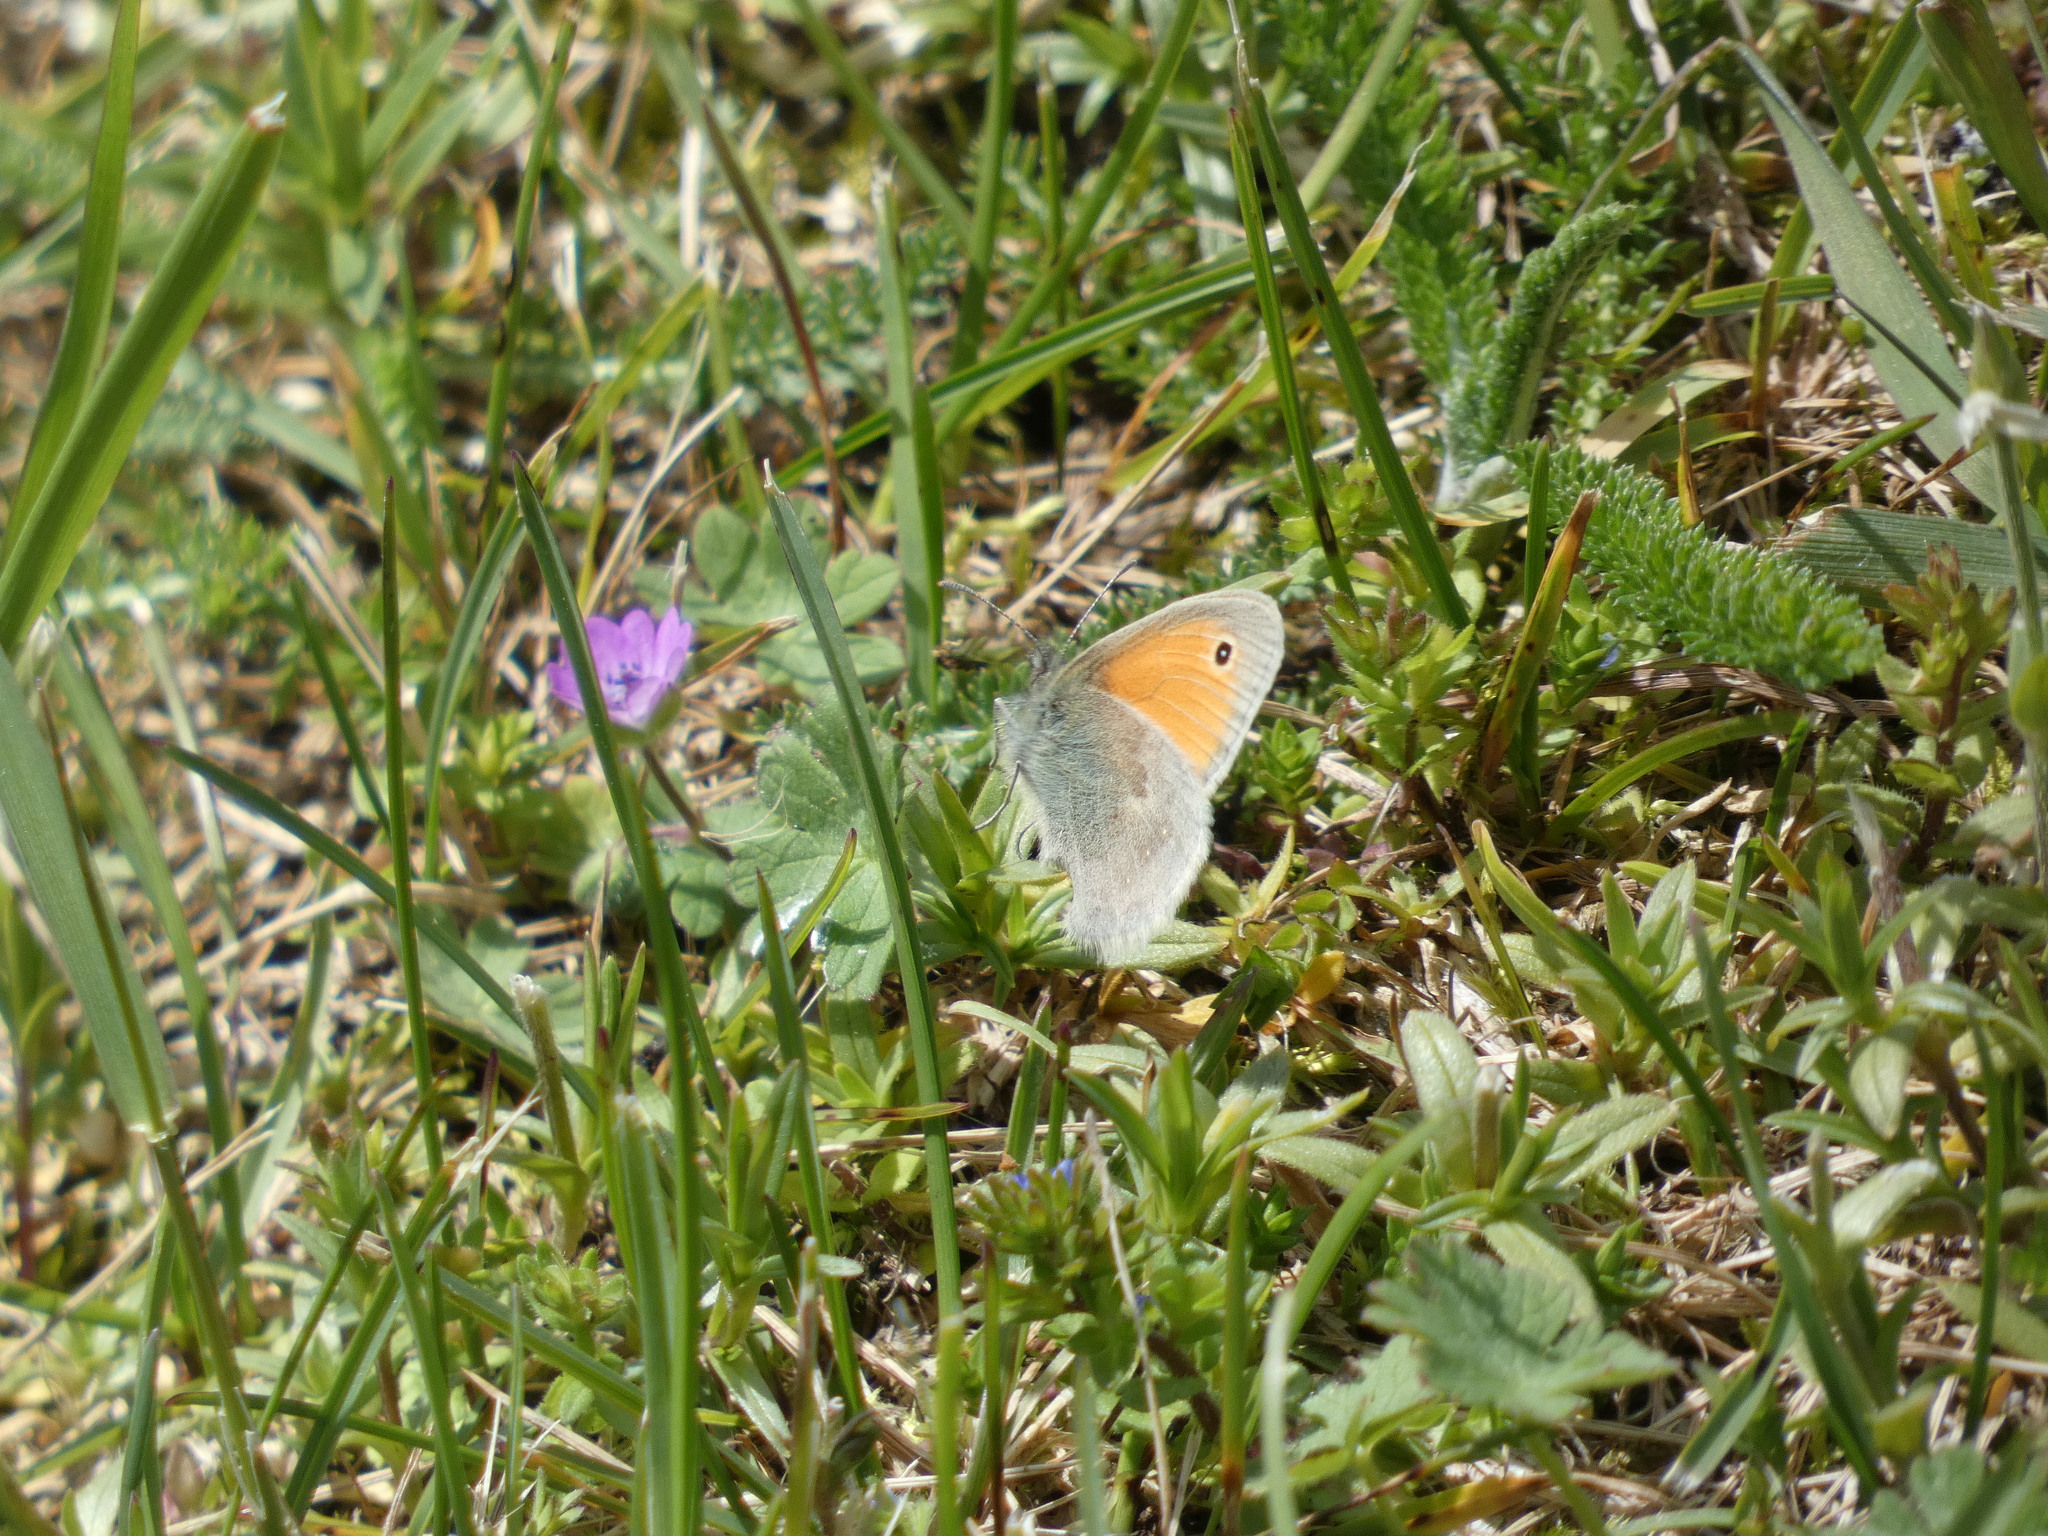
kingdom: Animalia
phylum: Arthropoda
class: Insecta
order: Lepidoptera
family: Nymphalidae
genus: Coenonympha
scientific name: Coenonympha pamphilus
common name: Small heath
